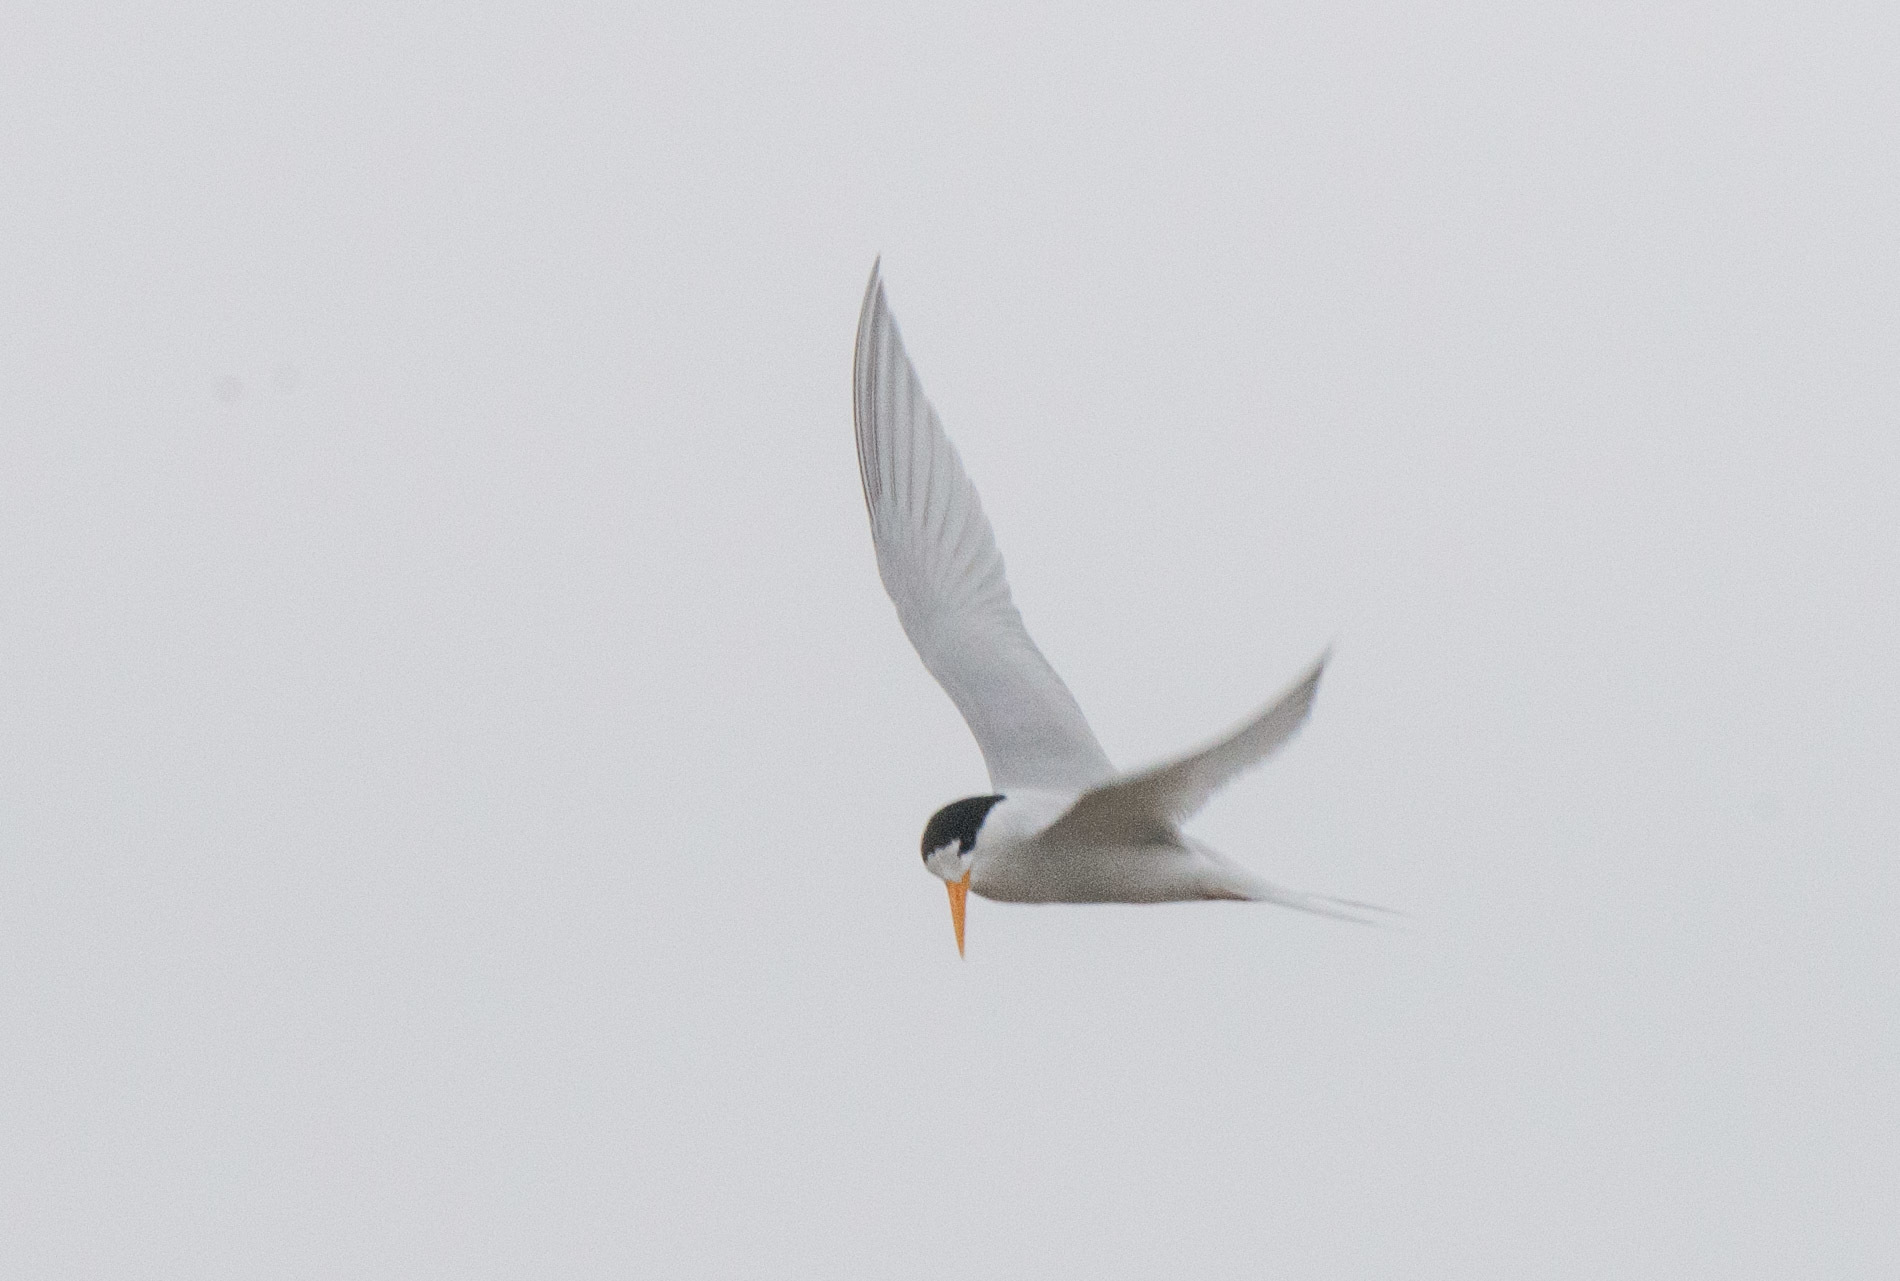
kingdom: Animalia
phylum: Chordata
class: Aves
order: Charadriiformes
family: Laridae
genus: Sternula
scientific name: Sternula nereis
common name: Fairy tern
